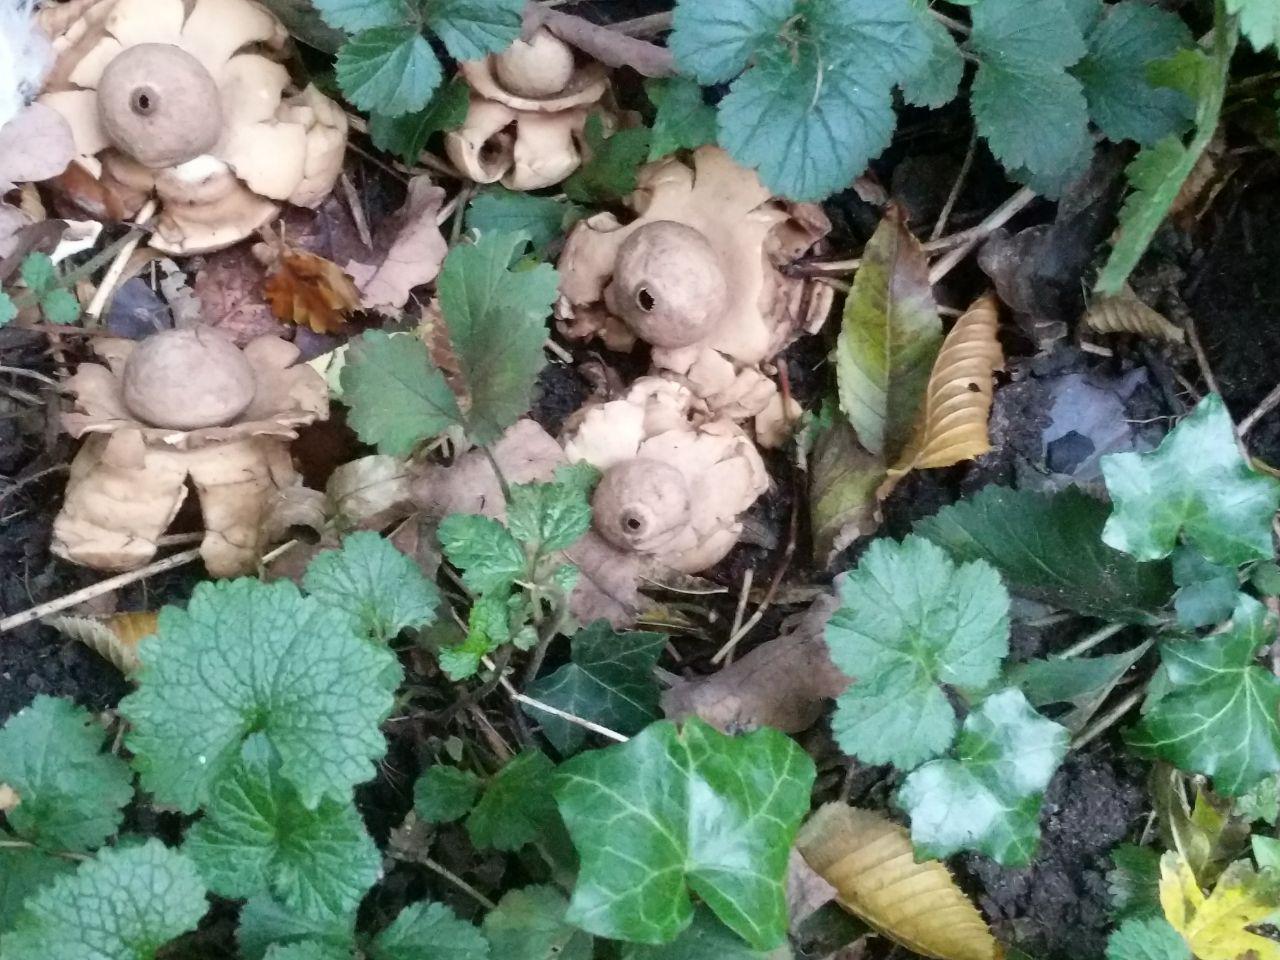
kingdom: Fungi
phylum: Basidiomycota
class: Agaricomycetes
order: Geastrales
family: Geastraceae
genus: Geastrum
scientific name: Geastrum triplex
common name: Collared earthstar
